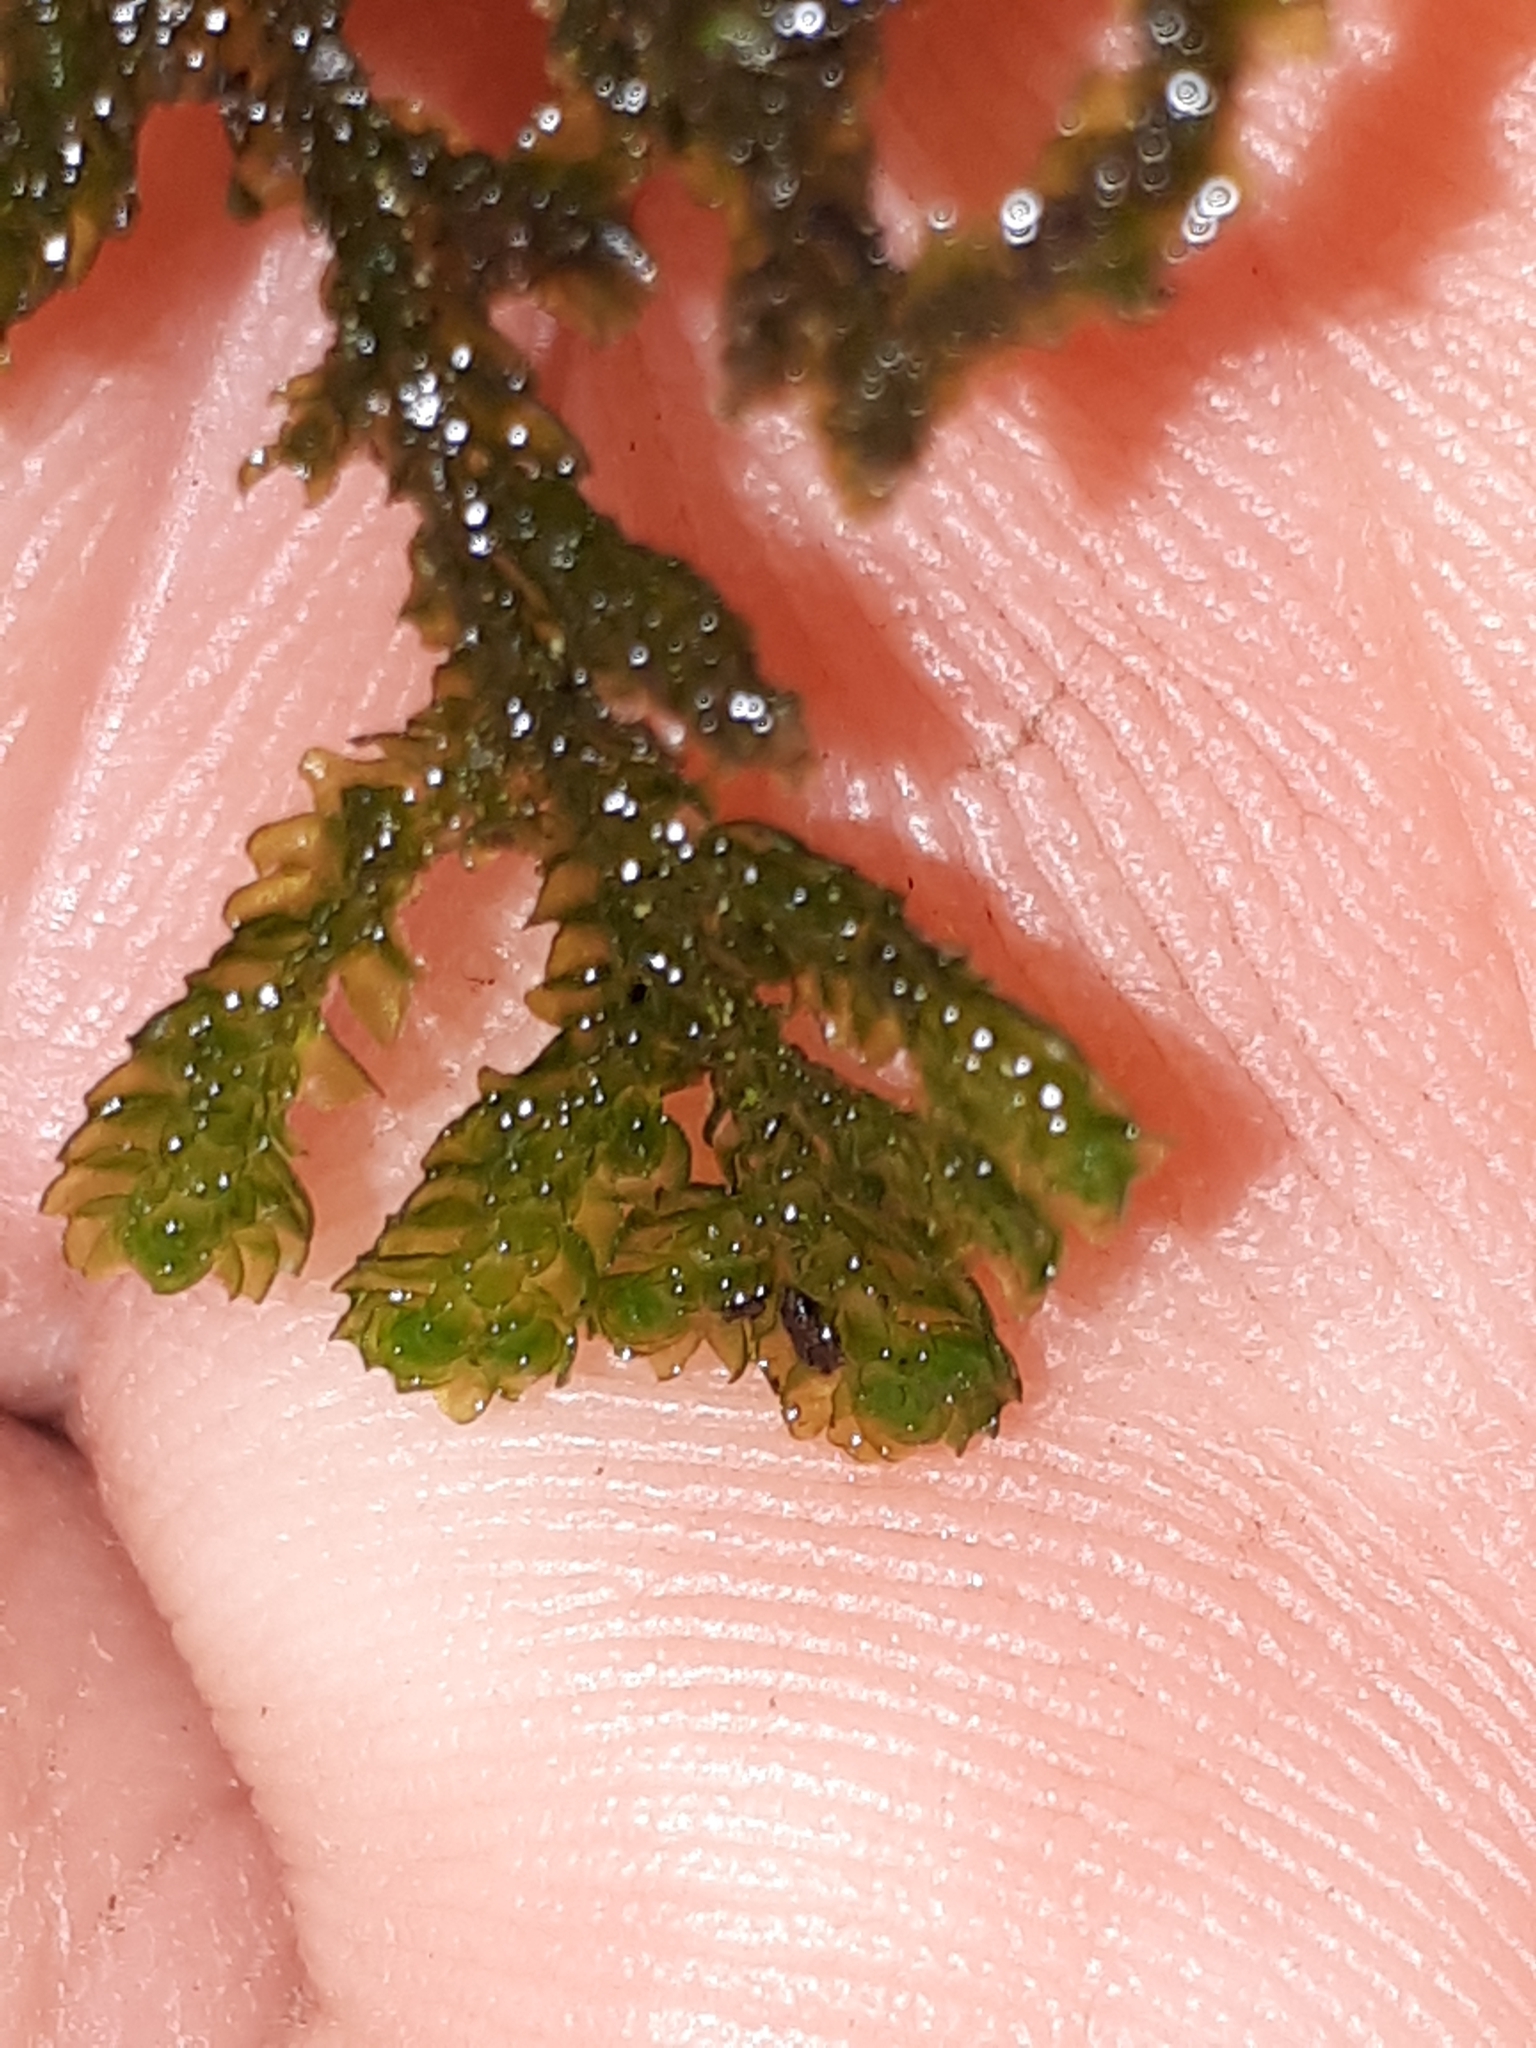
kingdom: Plantae
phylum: Marchantiophyta
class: Jungermanniopsida
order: Porellales
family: Porellaceae
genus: Porella
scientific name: Porella platyphylla
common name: Wall scalewort
